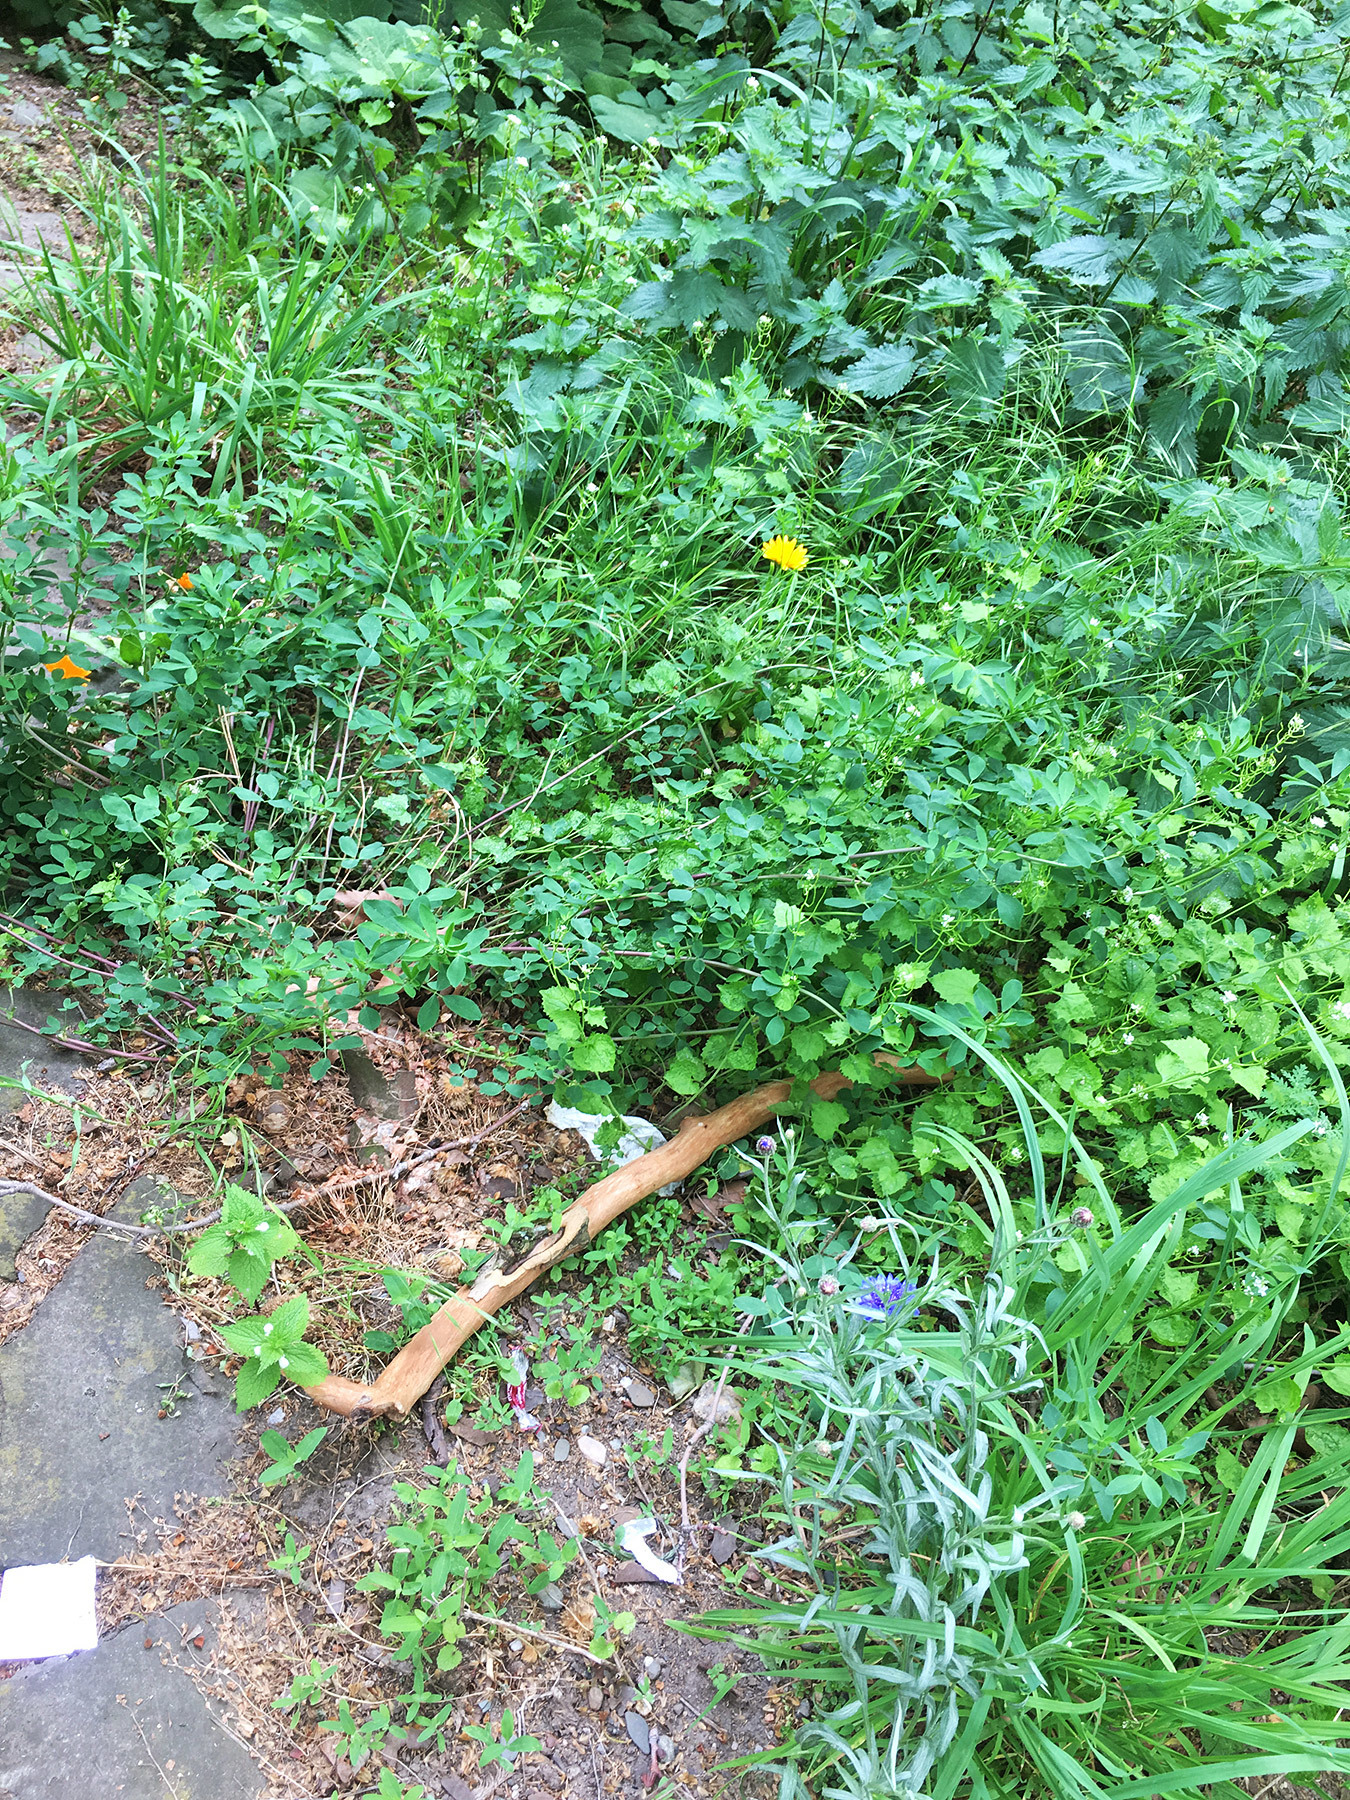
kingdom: Plantae
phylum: Tracheophyta
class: Magnoliopsida
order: Asterales
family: Asteraceae
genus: Calendula
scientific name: Calendula officinalis
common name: Pot marigold
